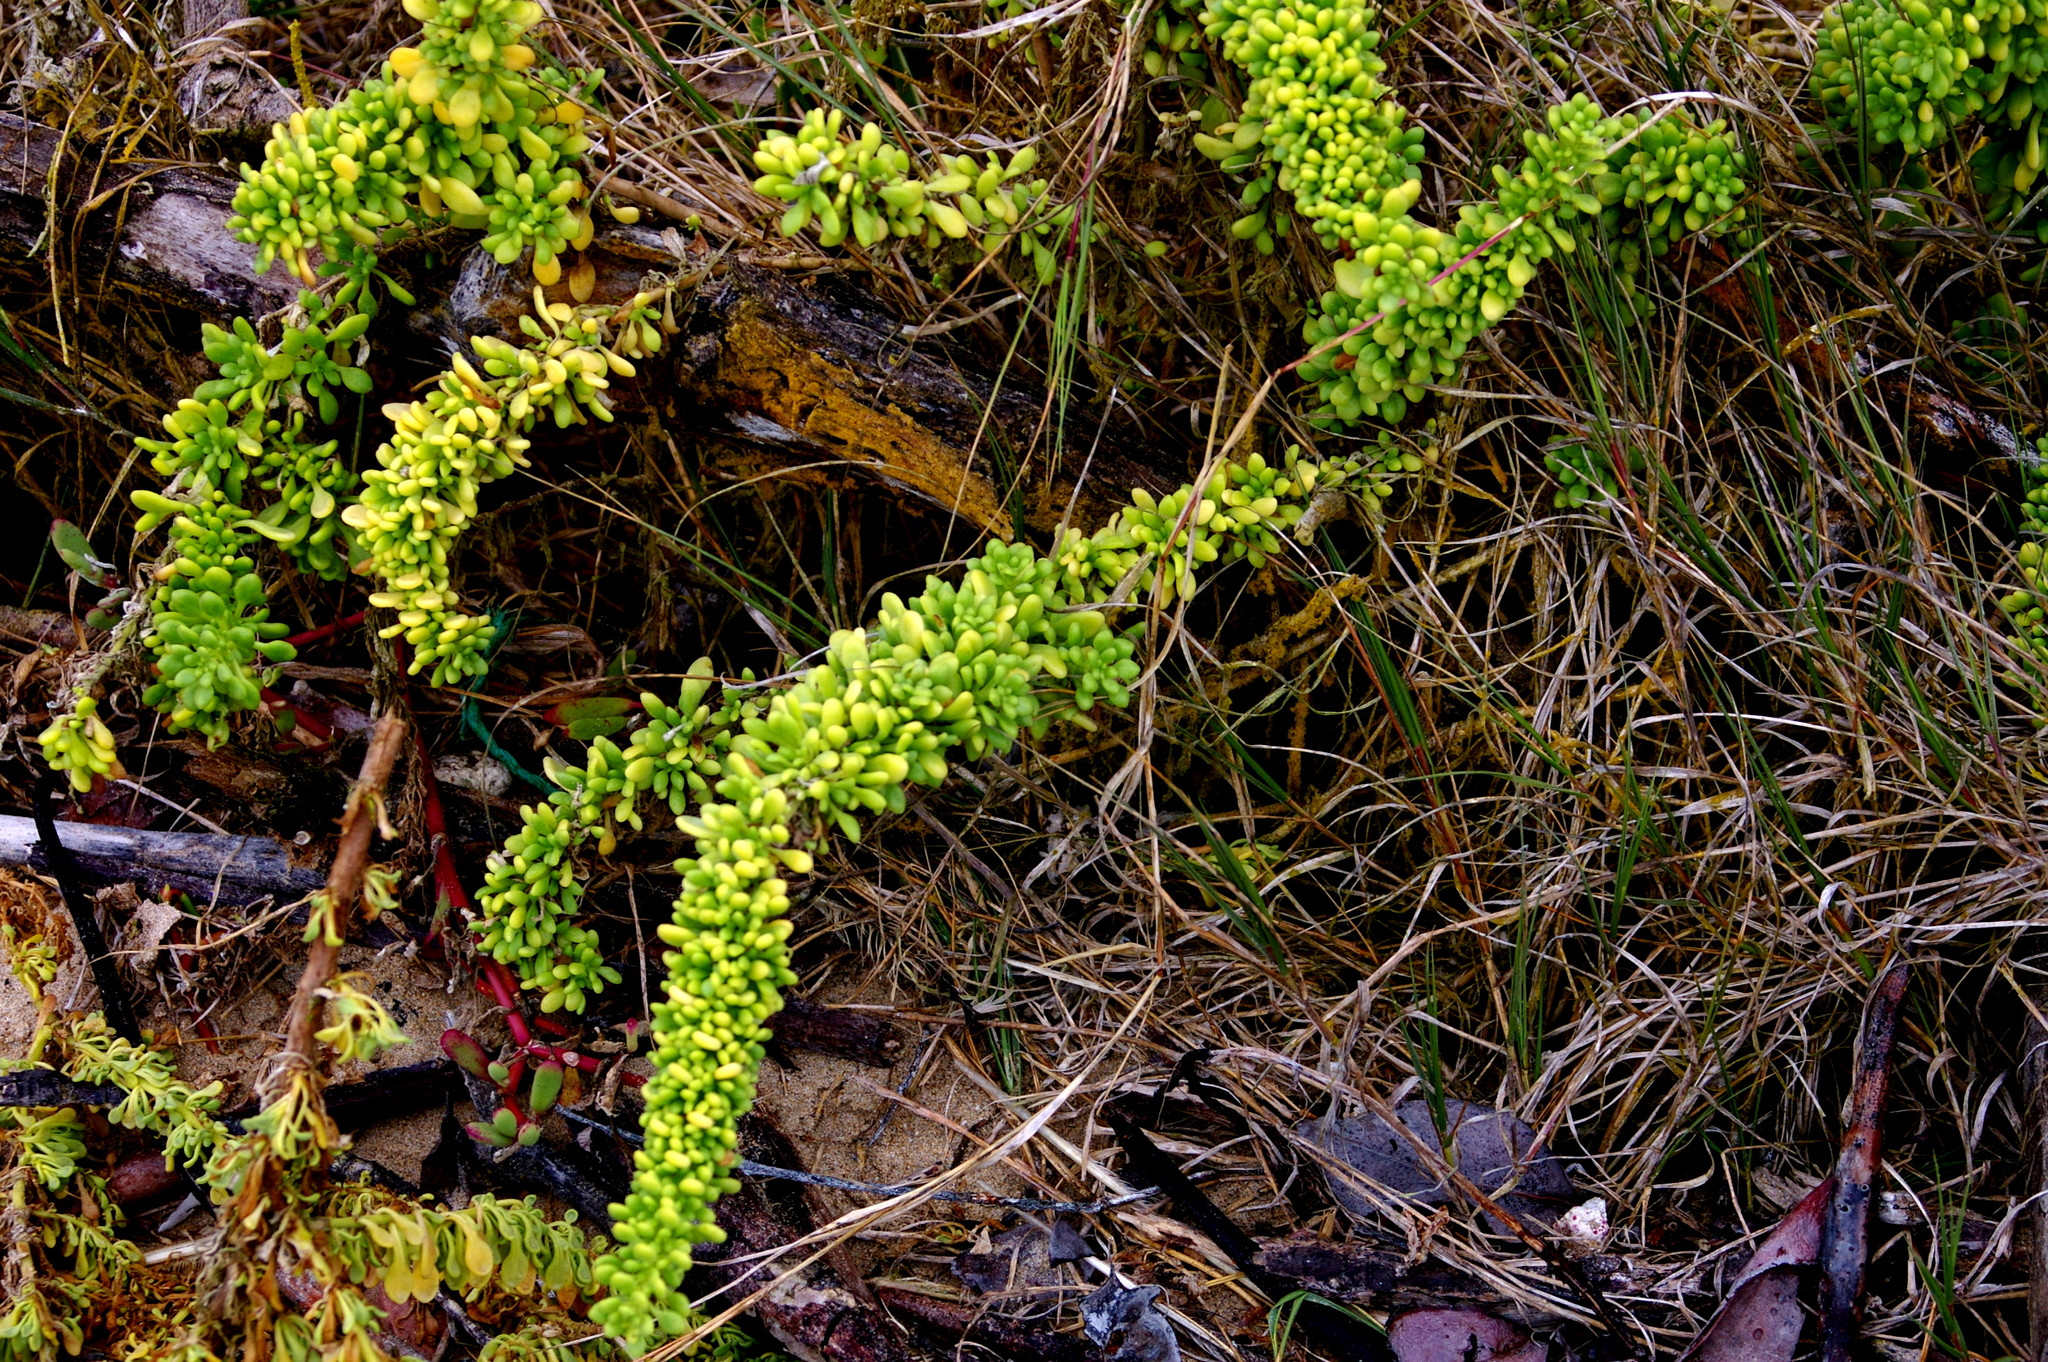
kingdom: Plantae
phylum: Tracheophyta
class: Magnoliopsida
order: Solanales
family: Solanaceae
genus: Nolana
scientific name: Nolana galapagensis
